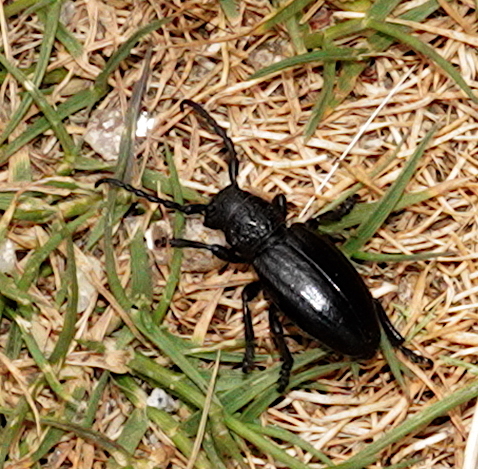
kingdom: Animalia
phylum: Arthropoda
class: Insecta
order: Coleoptera
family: Cerambycidae
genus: Iberodorcadion
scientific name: Iberodorcadion brannani
